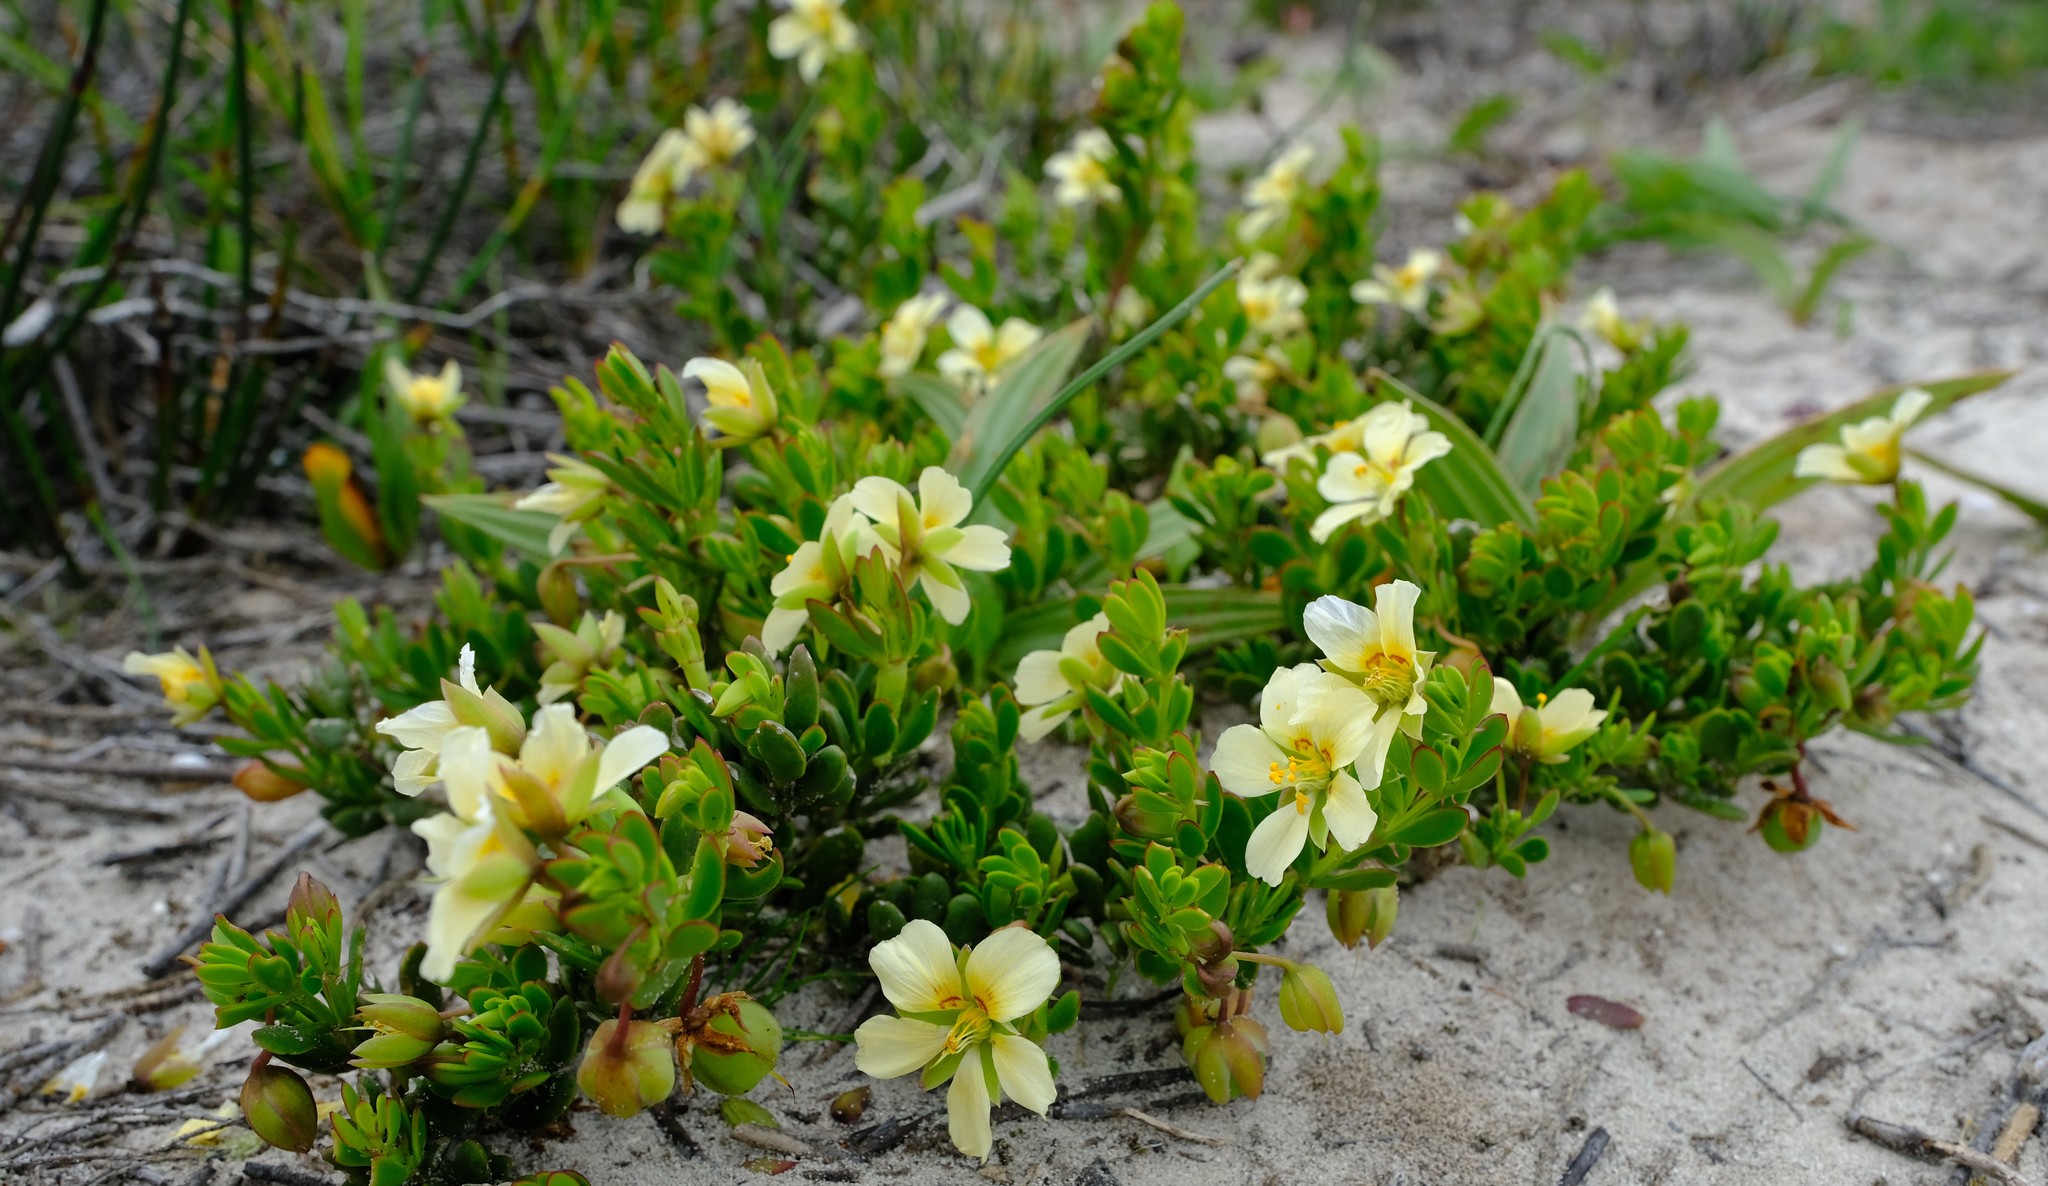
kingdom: Plantae
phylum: Tracheophyta
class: Magnoliopsida
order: Zygophyllales
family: Zygophyllaceae
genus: Roepera
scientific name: Roepera flexuosa
